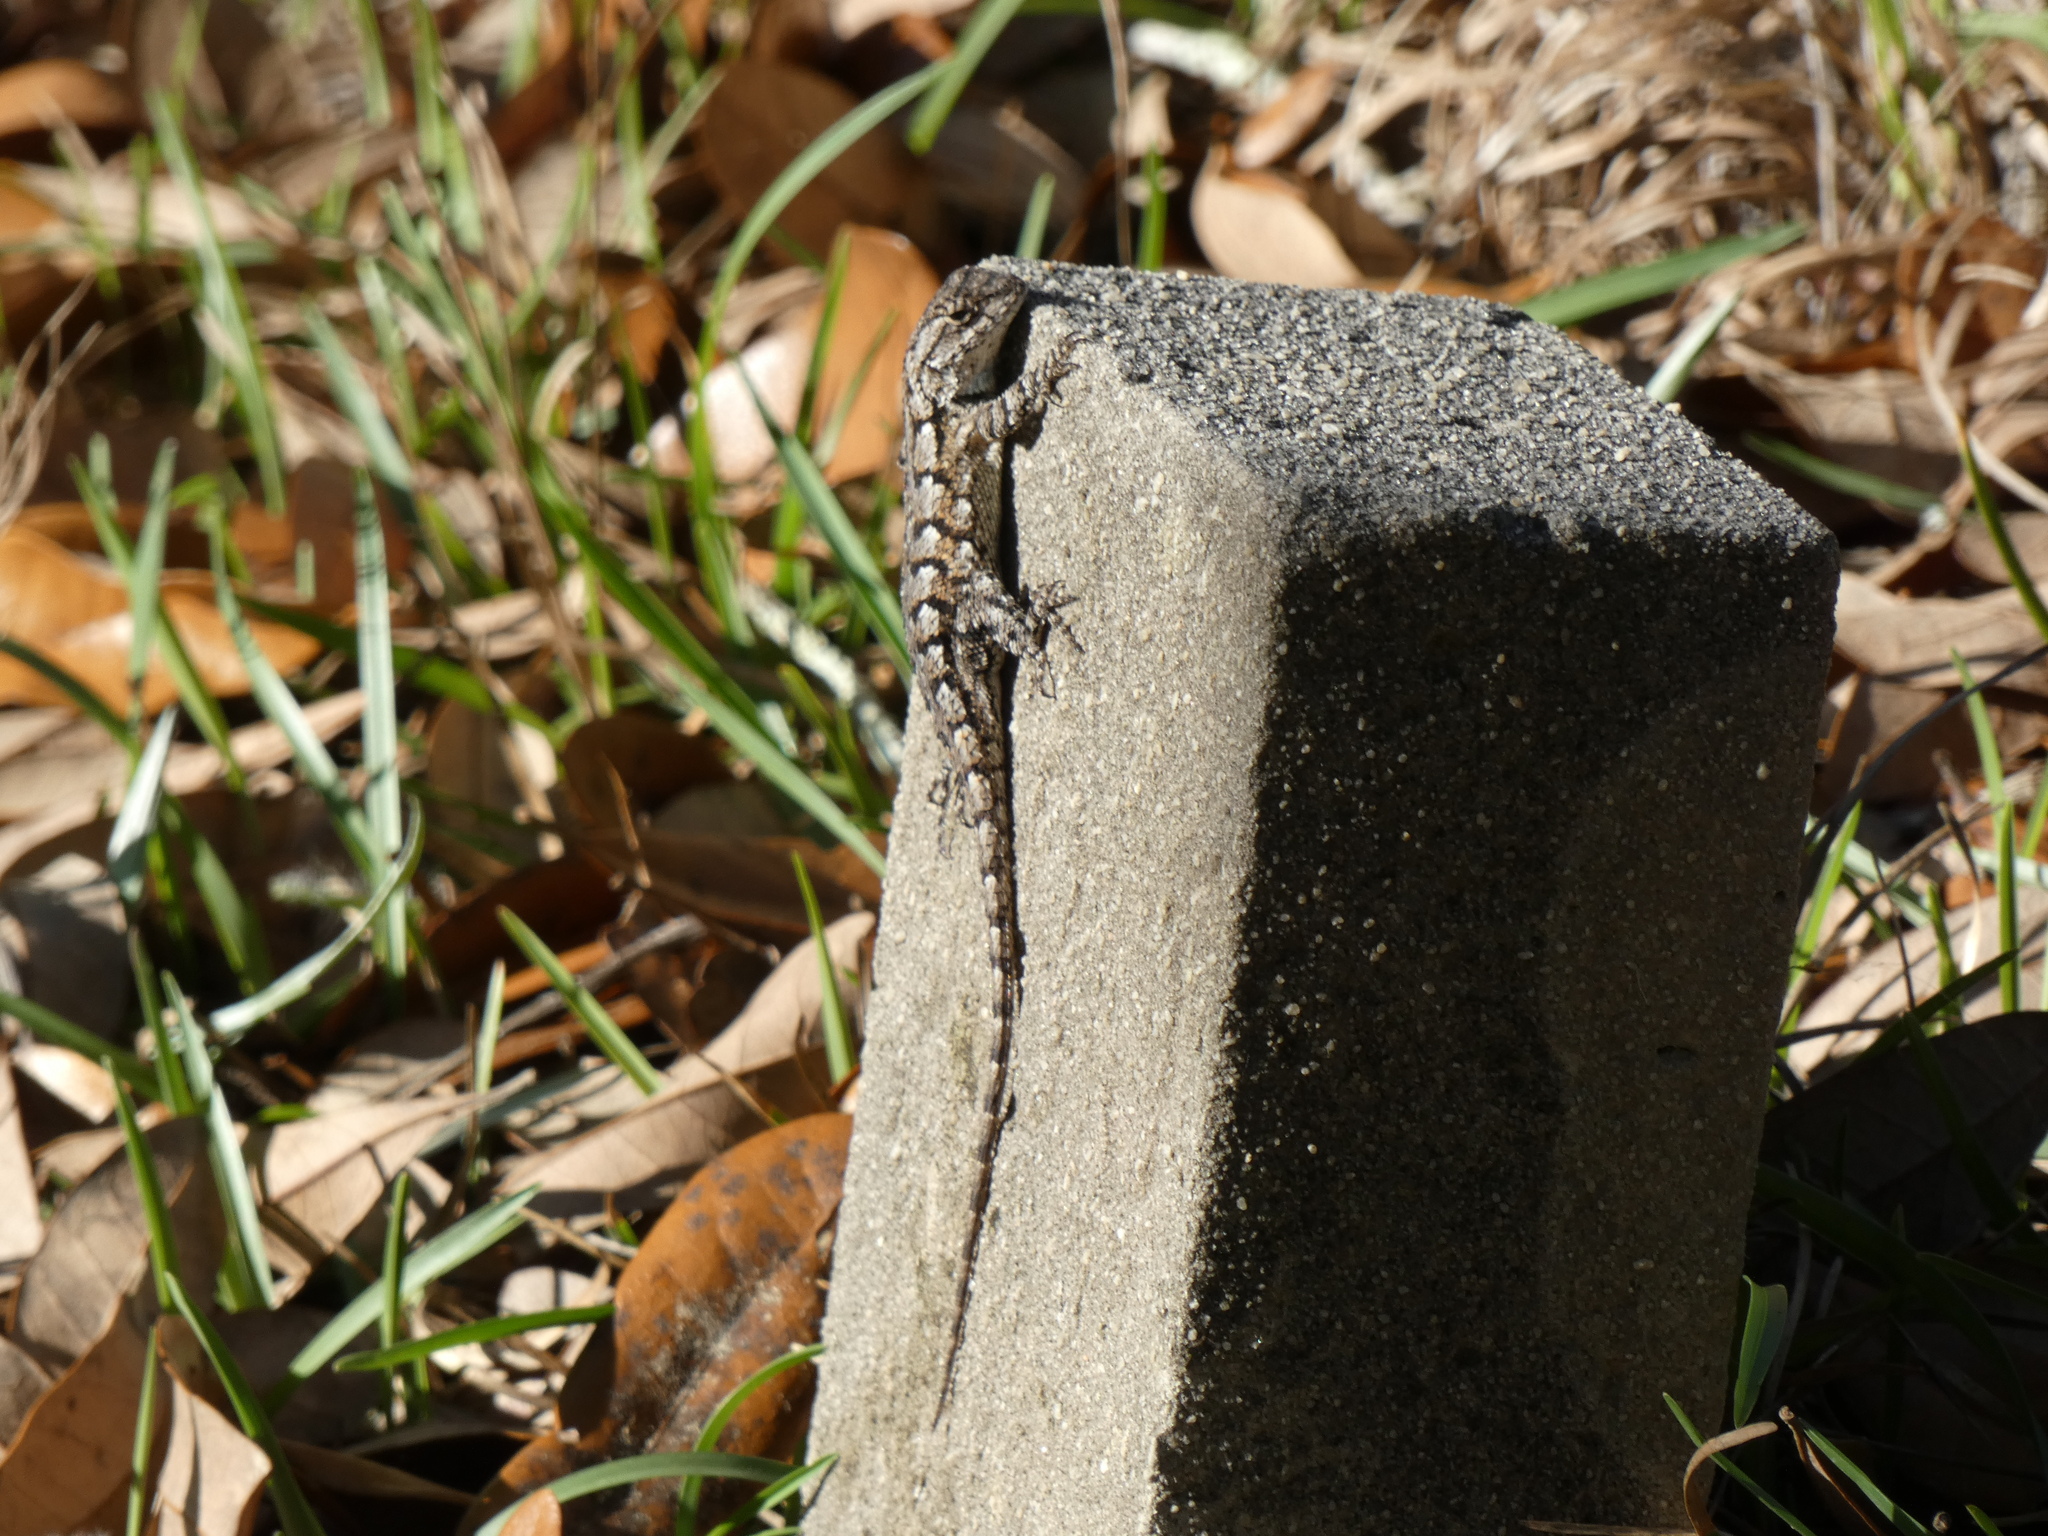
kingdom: Animalia
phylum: Chordata
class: Squamata
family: Phrynosomatidae
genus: Sceloporus
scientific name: Sceloporus undulatus
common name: Eastern fence lizard
